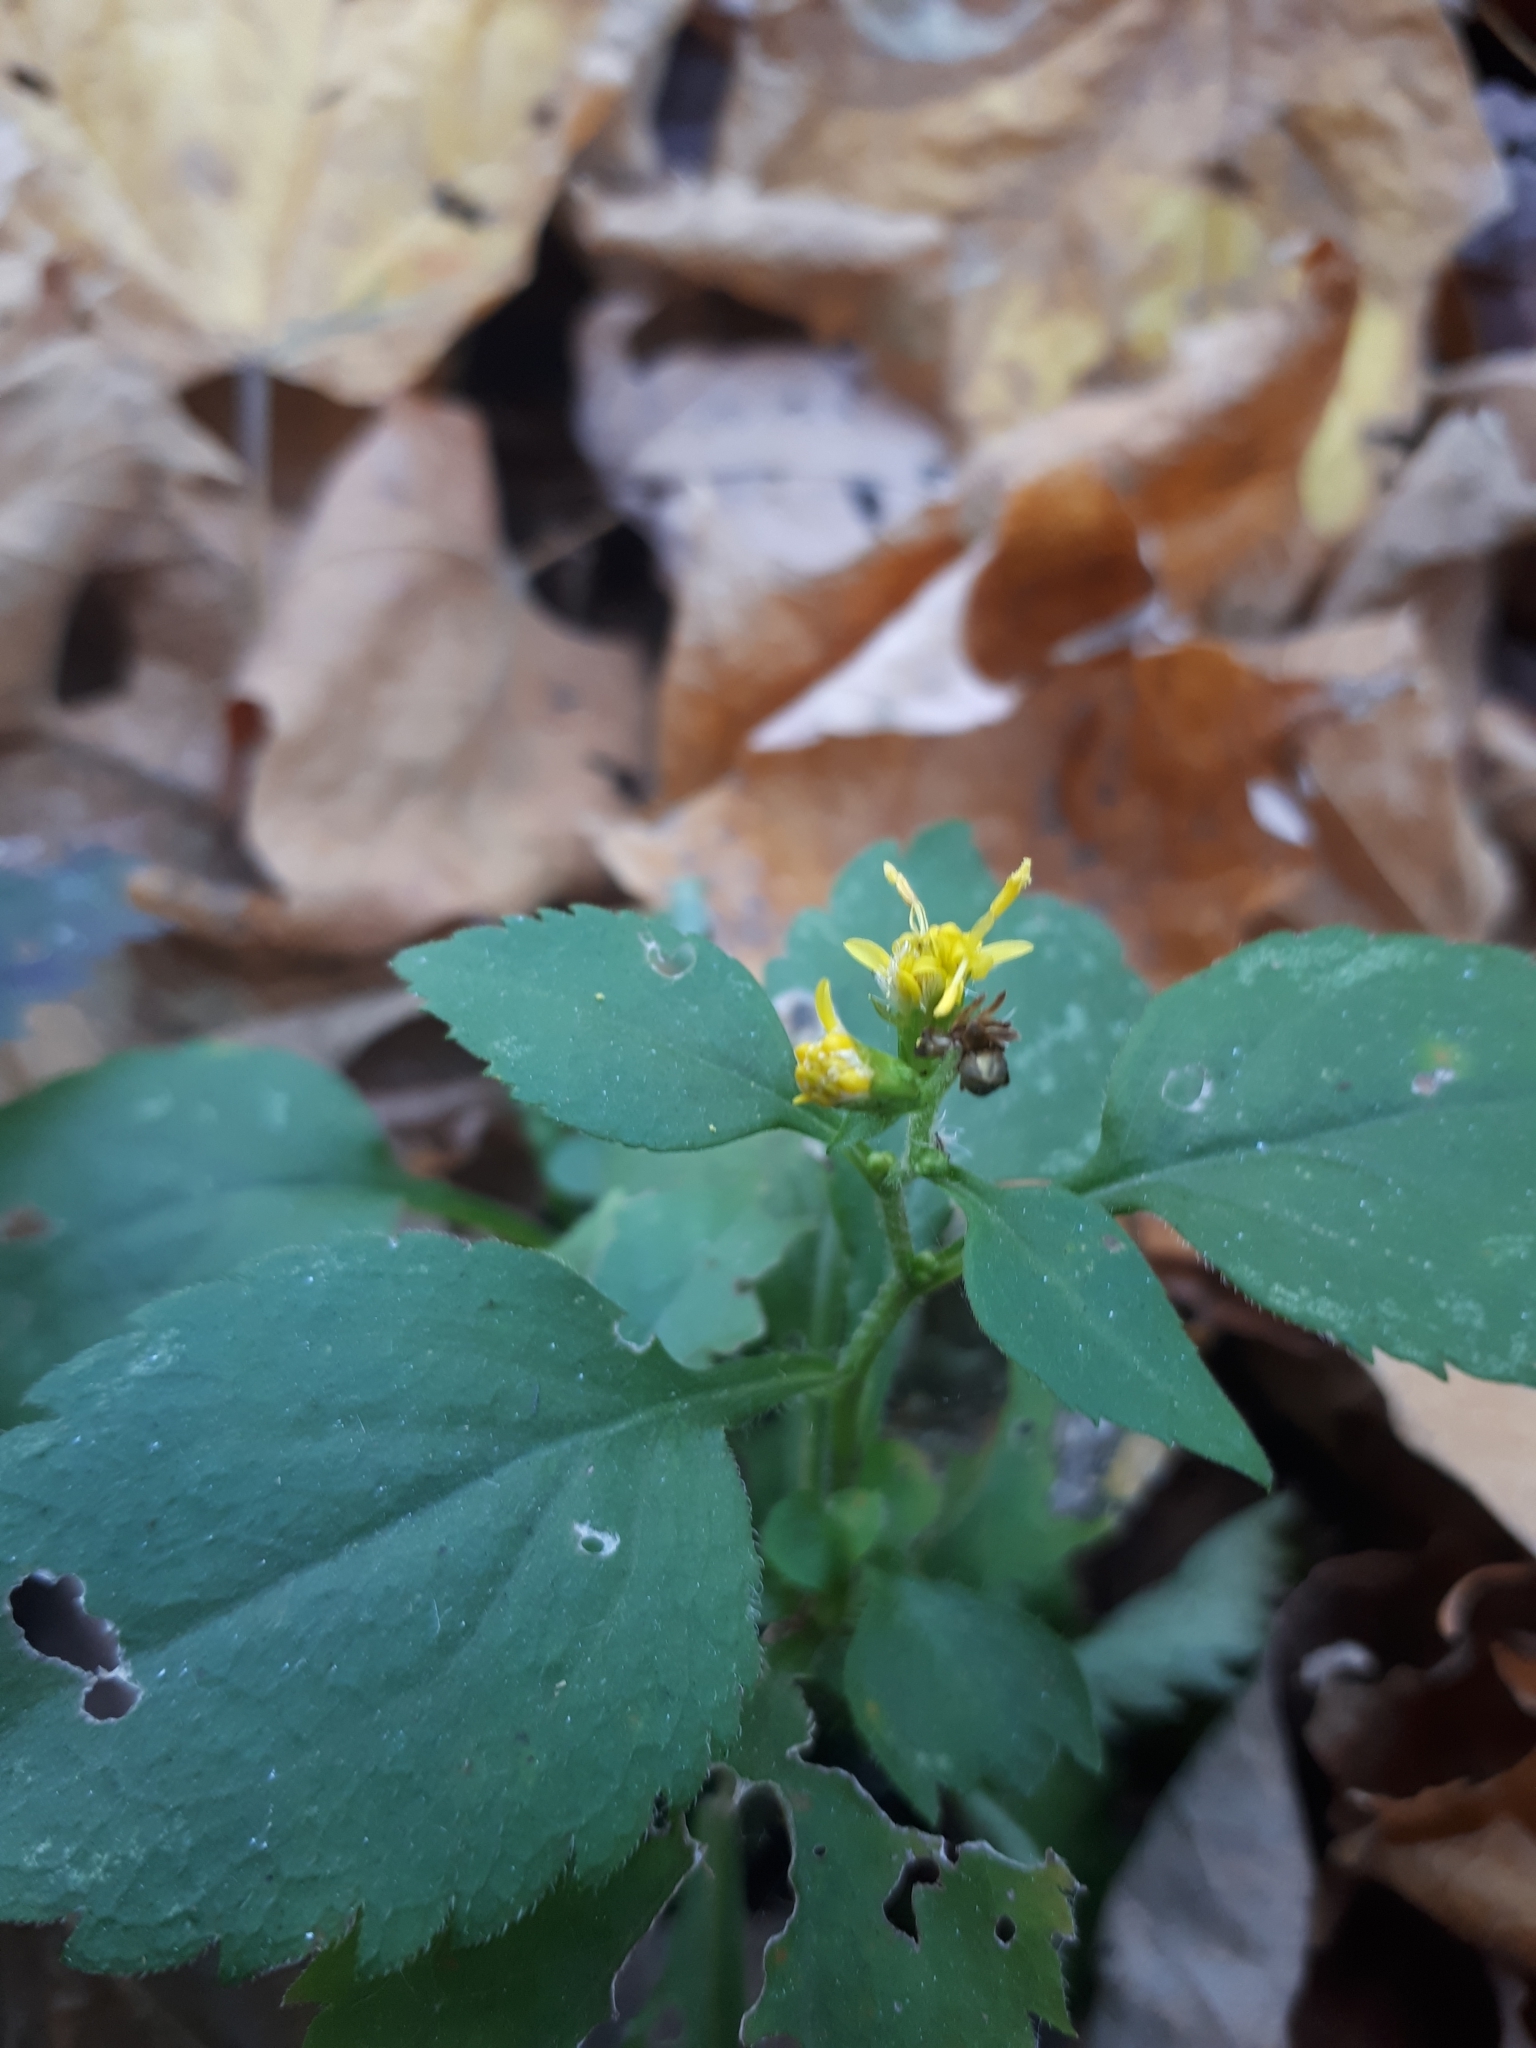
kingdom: Plantae
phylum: Tracheophyta
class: Magnoliopsida
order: Asterales
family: Asteraceae
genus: Solidago
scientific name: Solidago flexicaulis
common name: Zig-zag goldenrod
